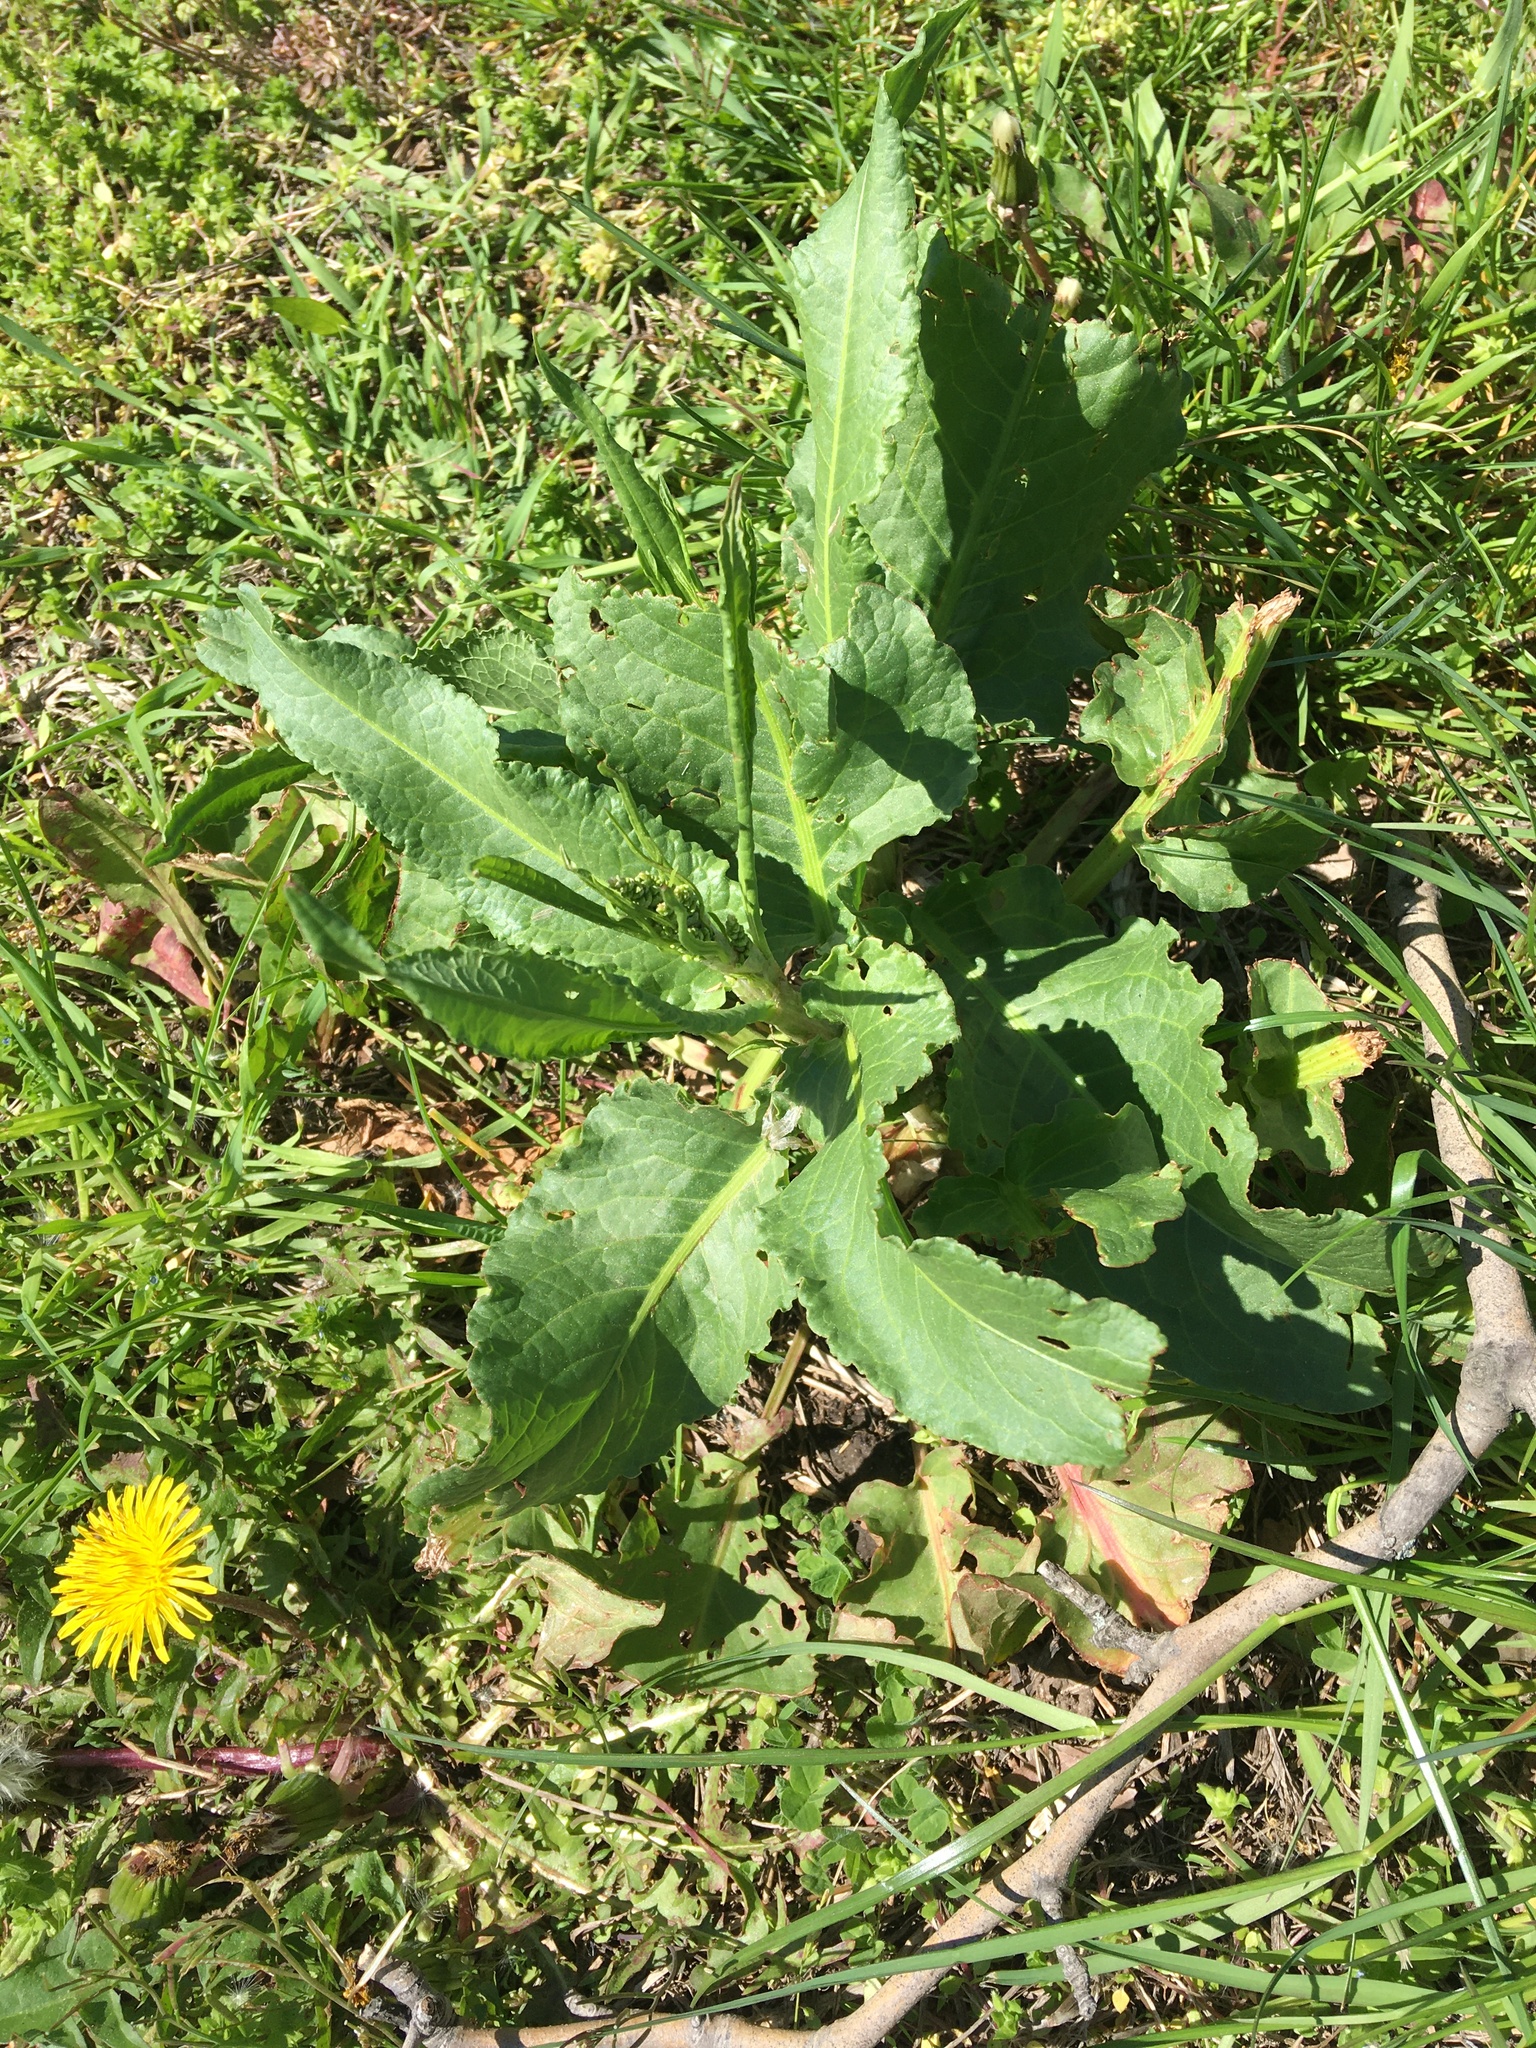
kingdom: Plantae
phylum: Tracheophyta
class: Magnoliopsida
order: Caryophyllales
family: Polygonaceae
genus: Rumex
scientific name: Rumex obtusifolius
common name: Bitter dock
